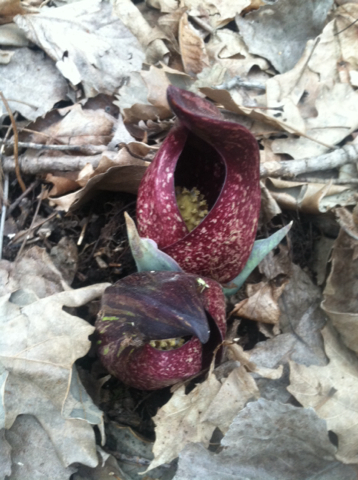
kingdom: Plantae
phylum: Tracheophyta
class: Liliopsida
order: Alismatales
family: Araceae
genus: Symplocarpus
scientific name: Symplocarpus foetidus
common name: Eastern skunk cabbage
